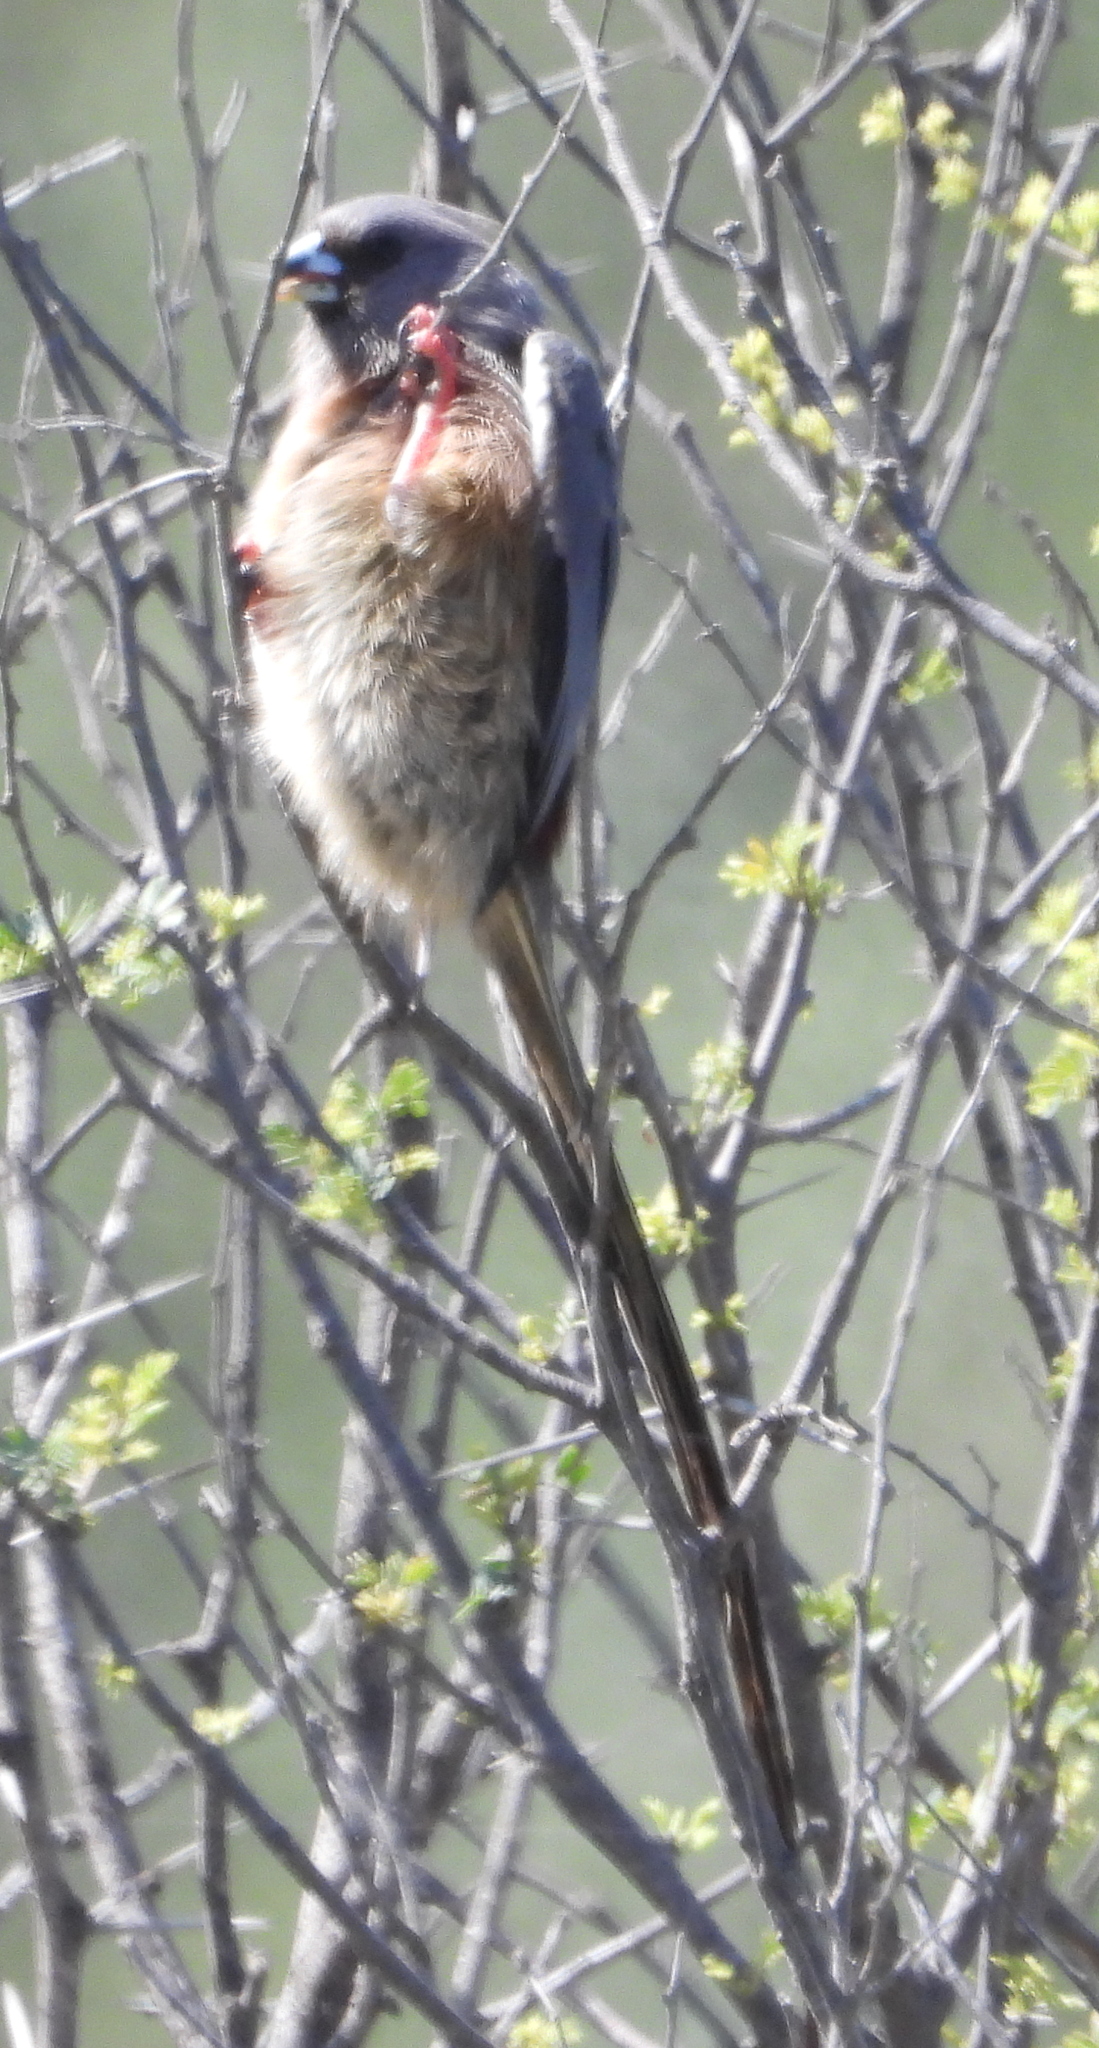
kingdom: Animalia
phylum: Chordata
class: Aves
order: Coliiformes
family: Coliidae
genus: Colius
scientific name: Colius colius
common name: White-backed mousebird
